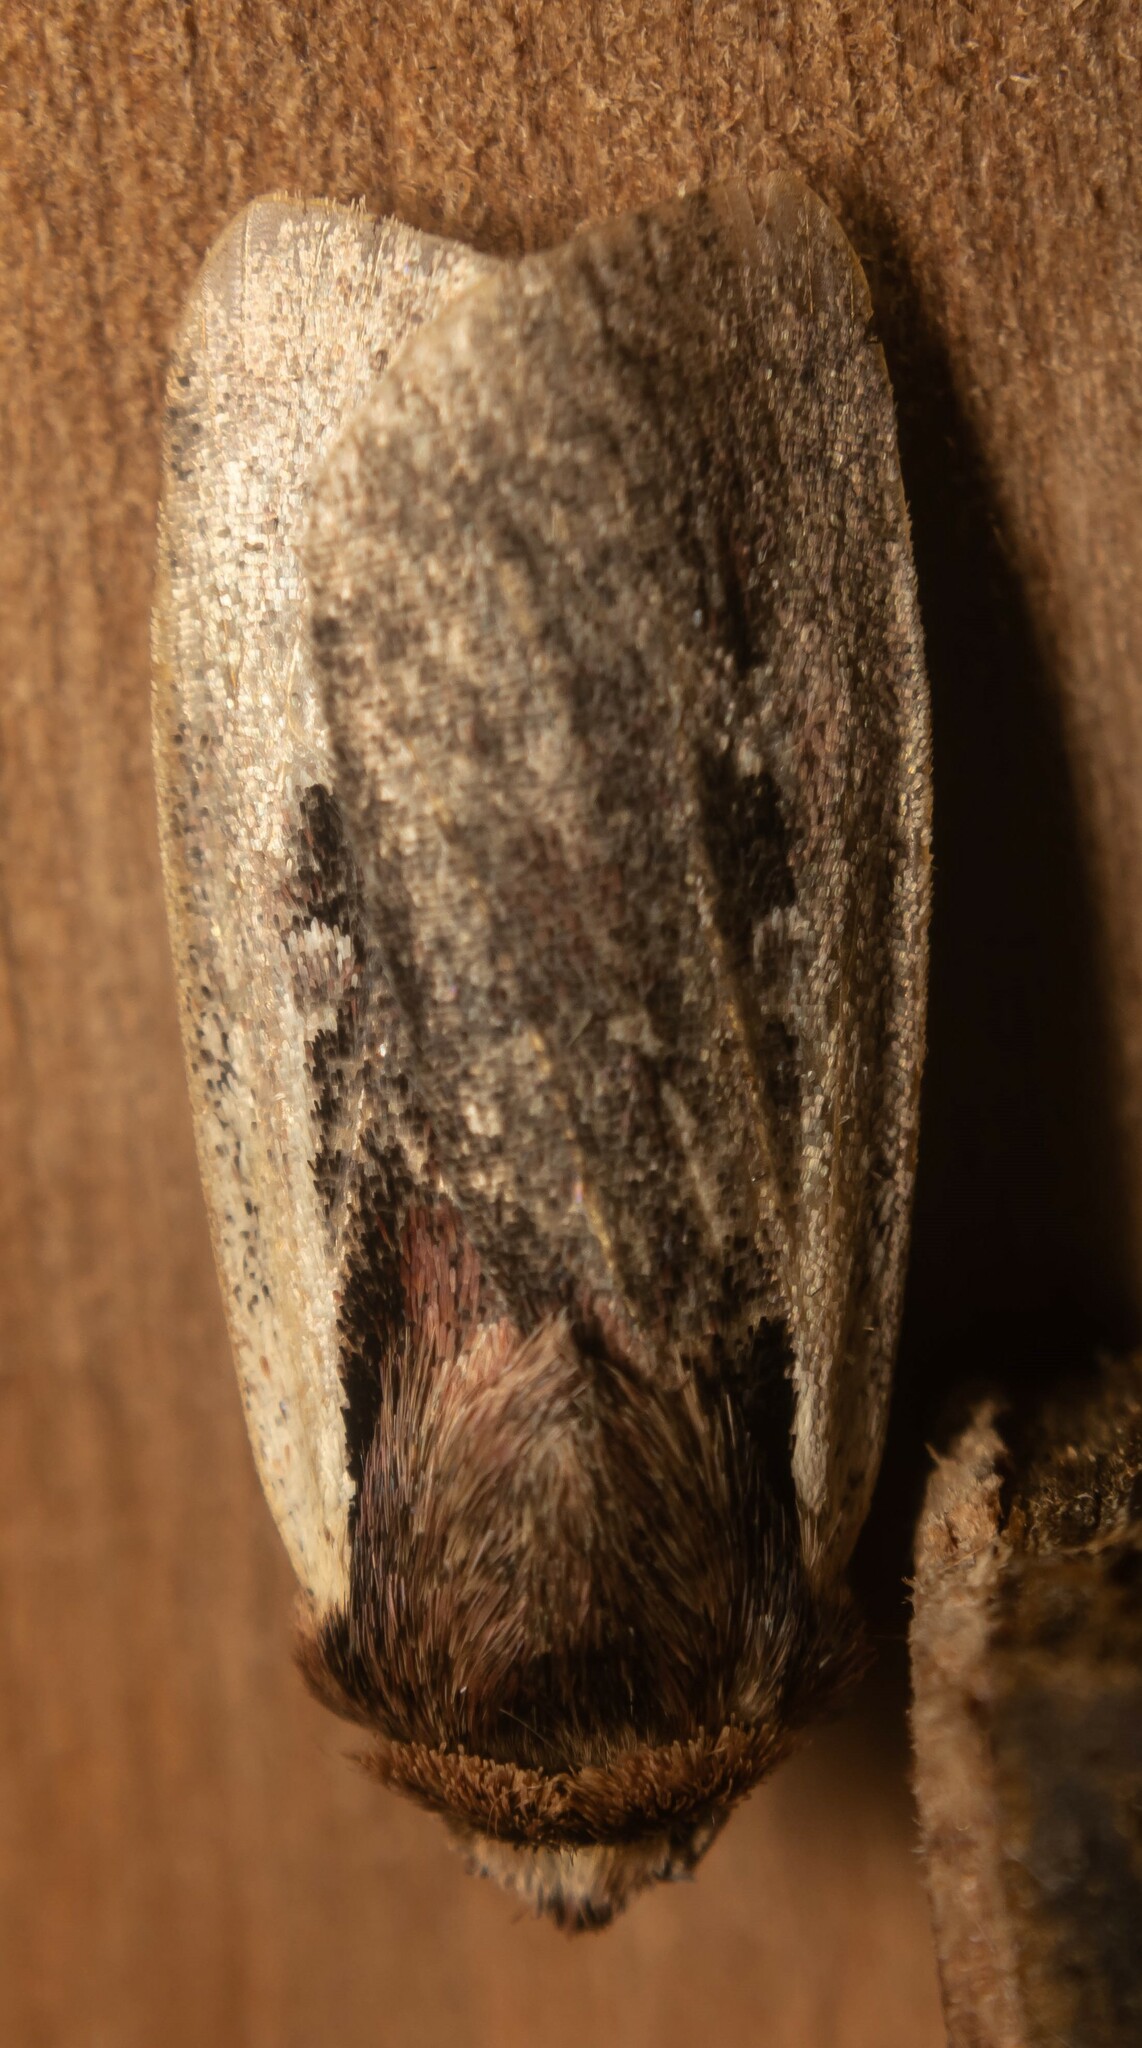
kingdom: Animalia
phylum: Arthropoda
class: Insecta
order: Lepidoptera
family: Noctuidae
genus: Ochropleura
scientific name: Ochropleura plecta
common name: Flame shoulder
